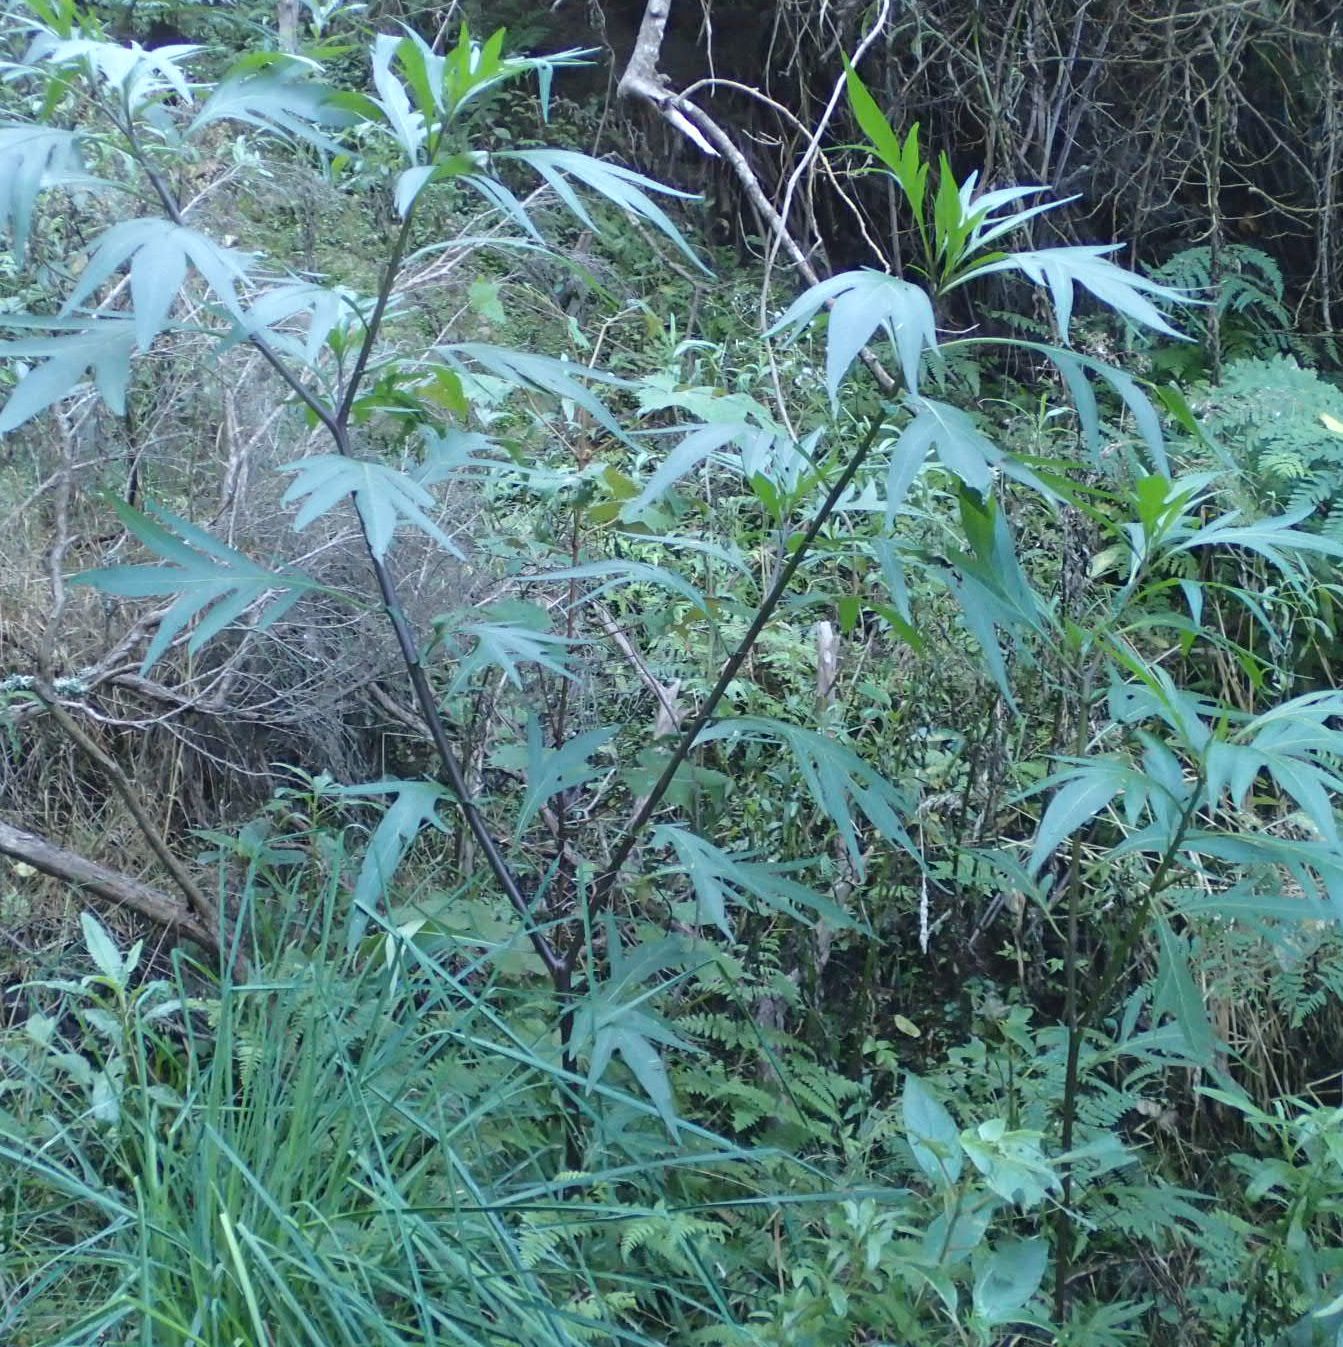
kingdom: Plantae
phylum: Tracheophyta
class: Magnoliopsida
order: Solanales
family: Solanaceae
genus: Solanum
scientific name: Solanum laciniatum
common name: Kangaroo-apple
